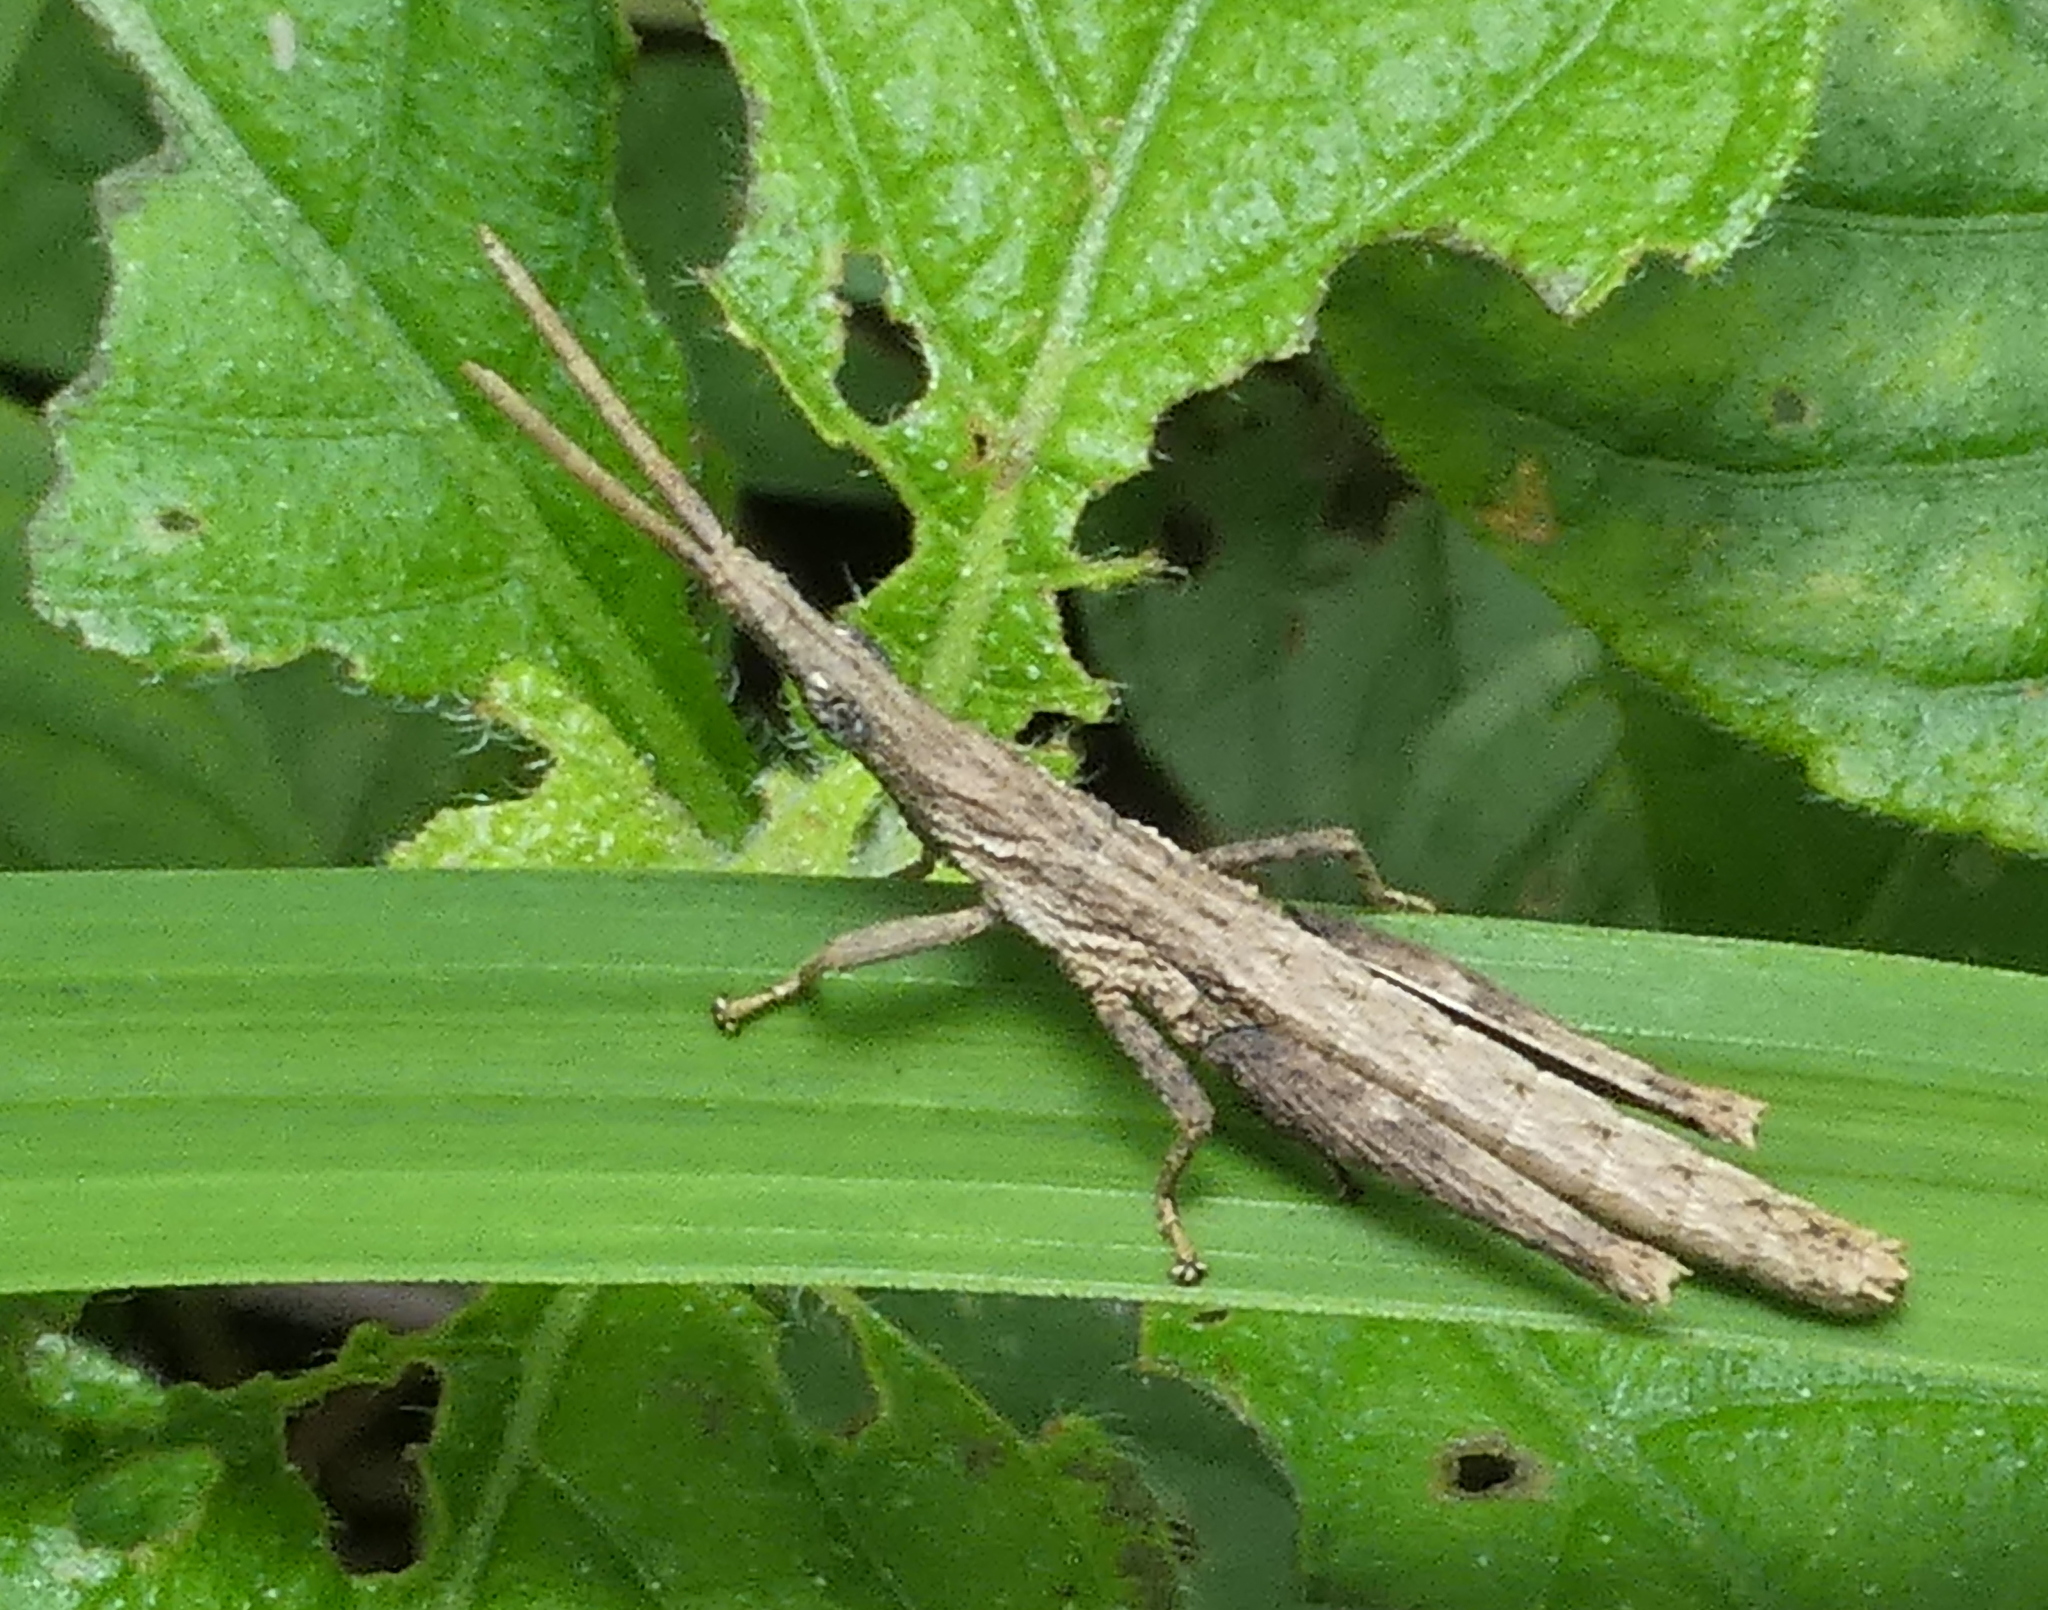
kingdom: Animalia
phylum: Arthropoda
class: Insecta
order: Orthoptera
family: Pyrgomorphidae
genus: Algete
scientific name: Algete brunneri
